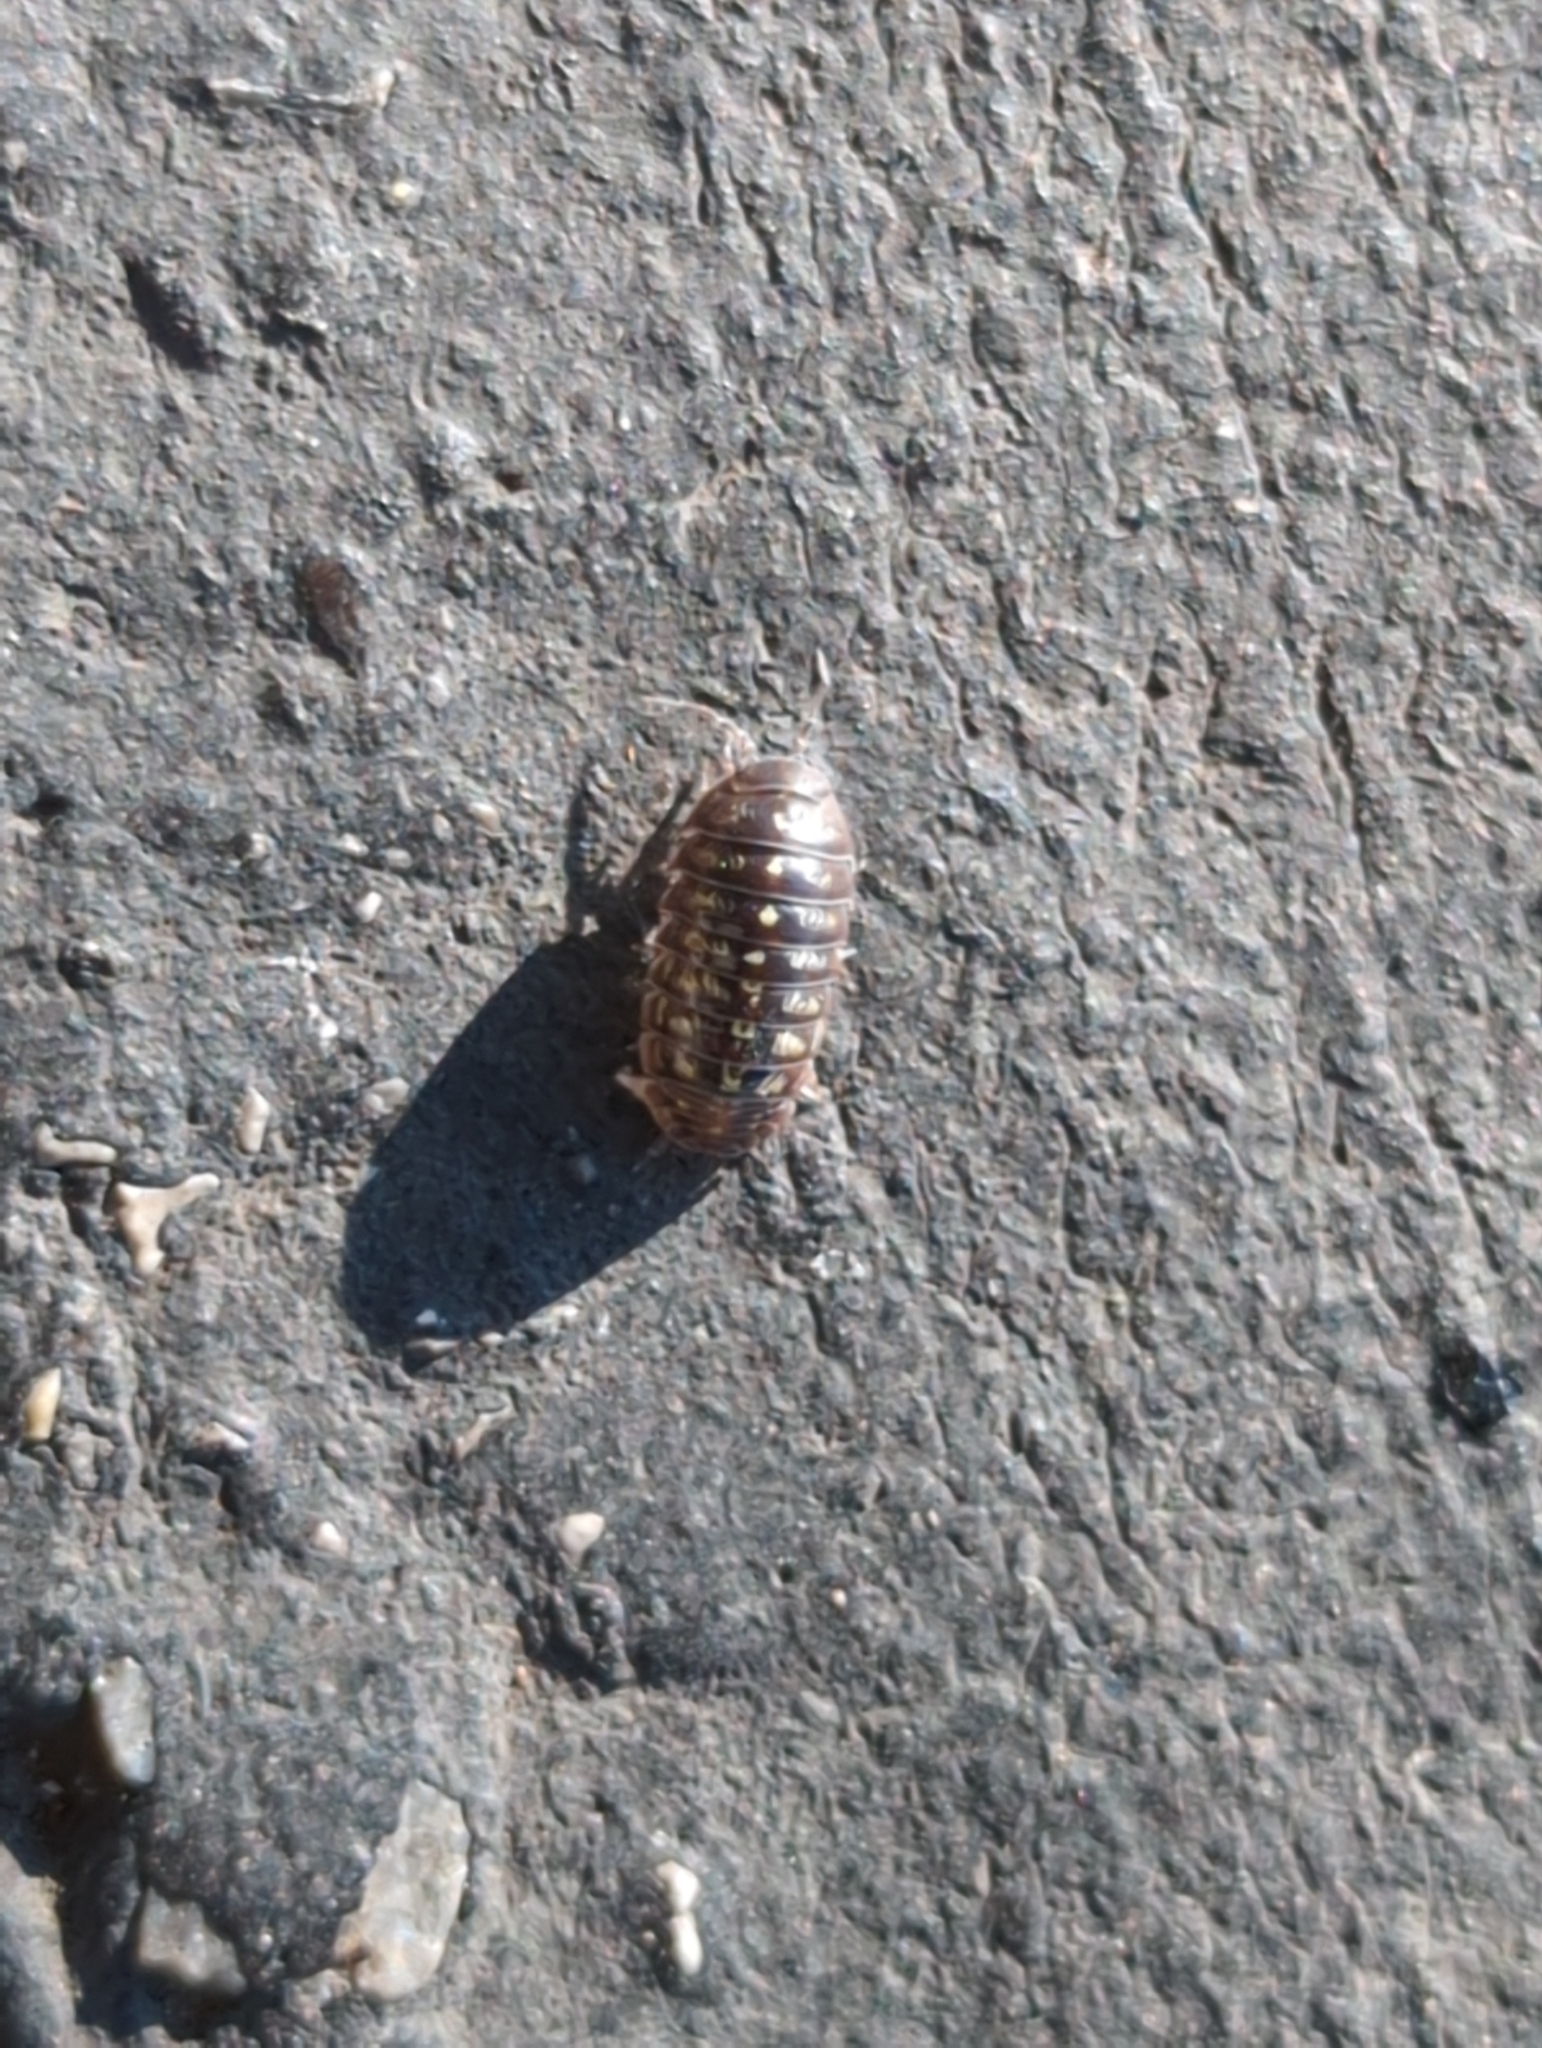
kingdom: Animalia
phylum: Arthropoda
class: Malacostraca
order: Isopoda
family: Armadillidiidae
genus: Armadillidium
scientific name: Armadillidium vulgare
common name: Common pill woodlouse
